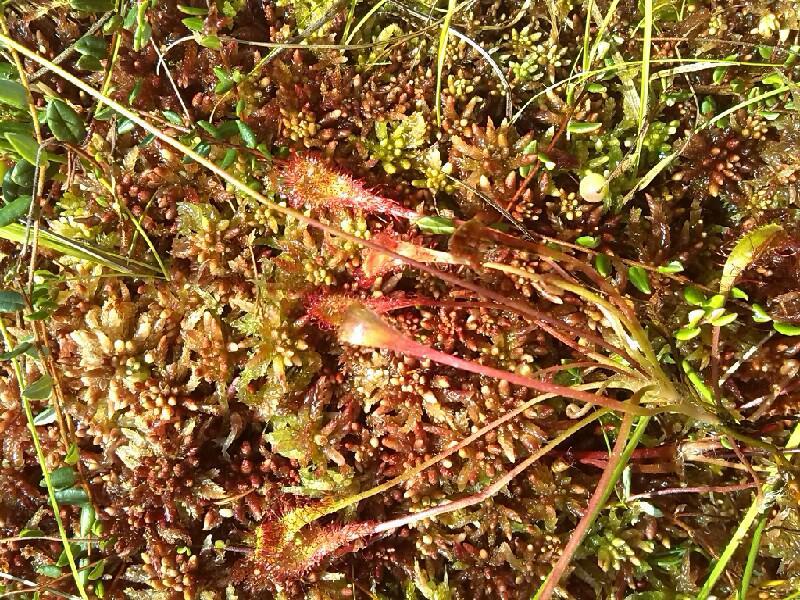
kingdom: Plantae
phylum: Tracheophyta
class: Magnoliopsida
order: Caryophyllales
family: Droseraceae
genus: Drosera
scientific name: Drosera anglica
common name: Great sundew
